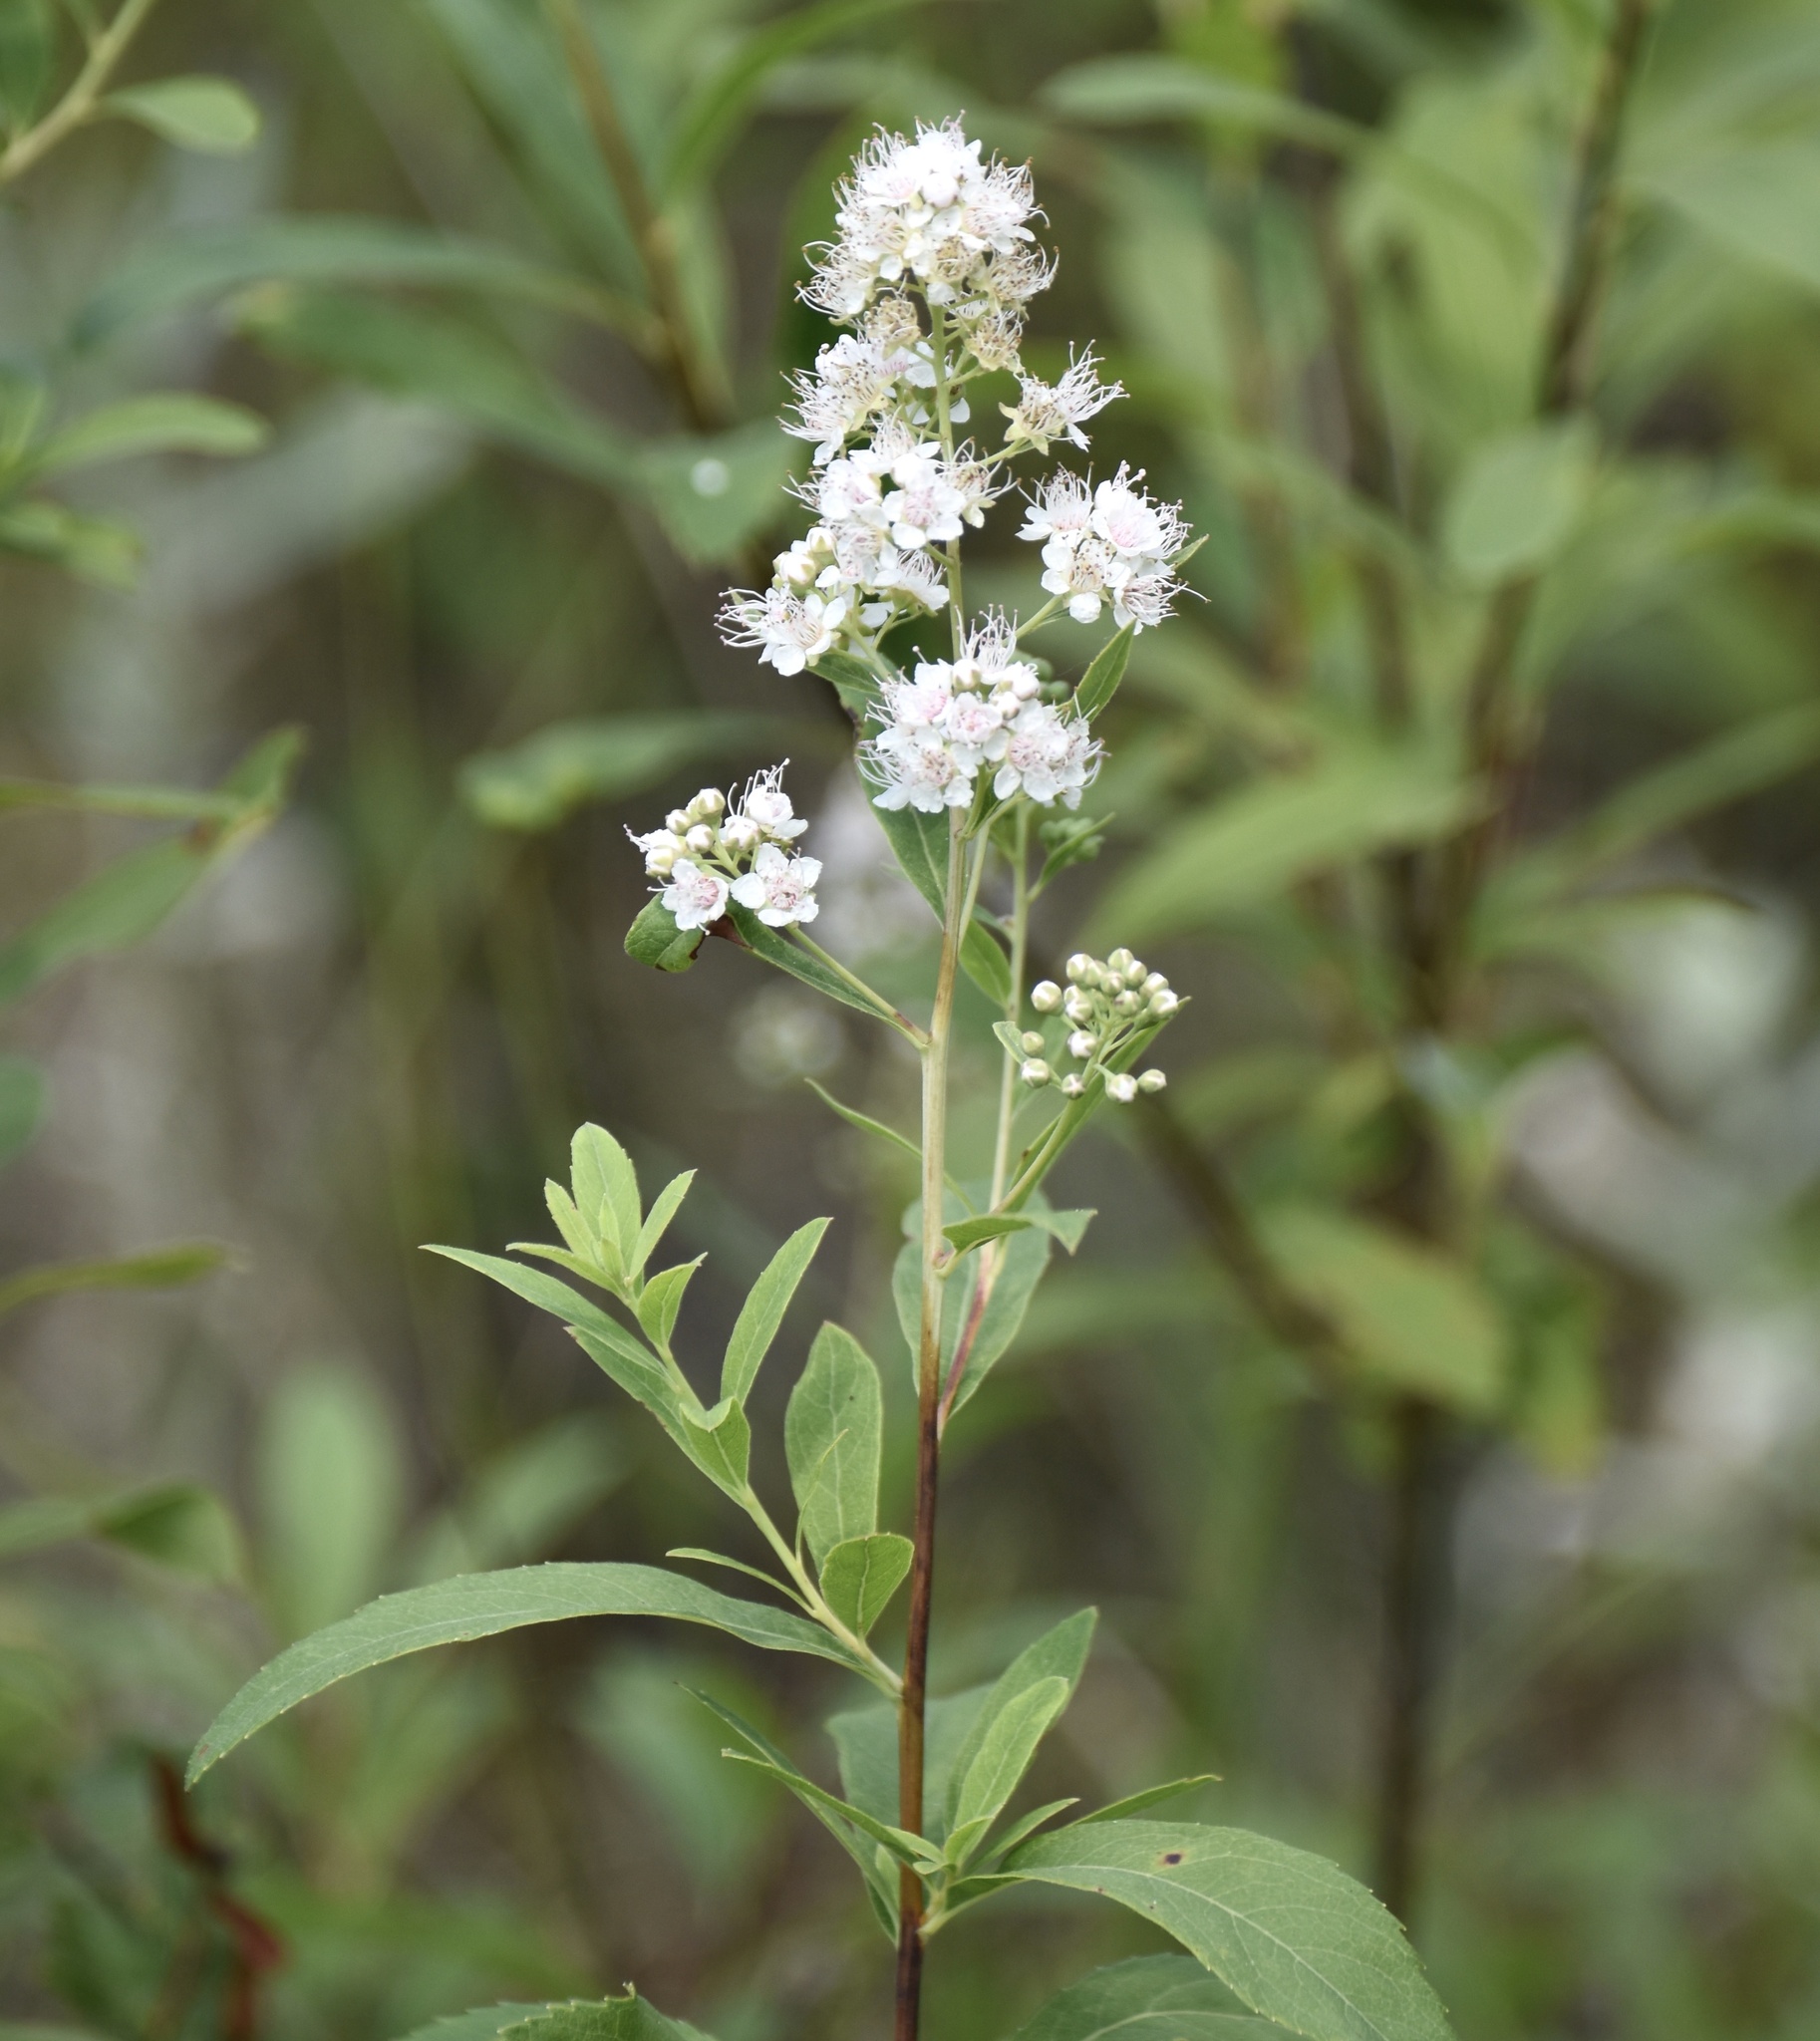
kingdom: Plantae
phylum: Tracheophyta
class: Magnoliopsida
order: Rosales
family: Rosaceae
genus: Spiraea
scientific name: Spiraea alba
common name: Pale bridewort
